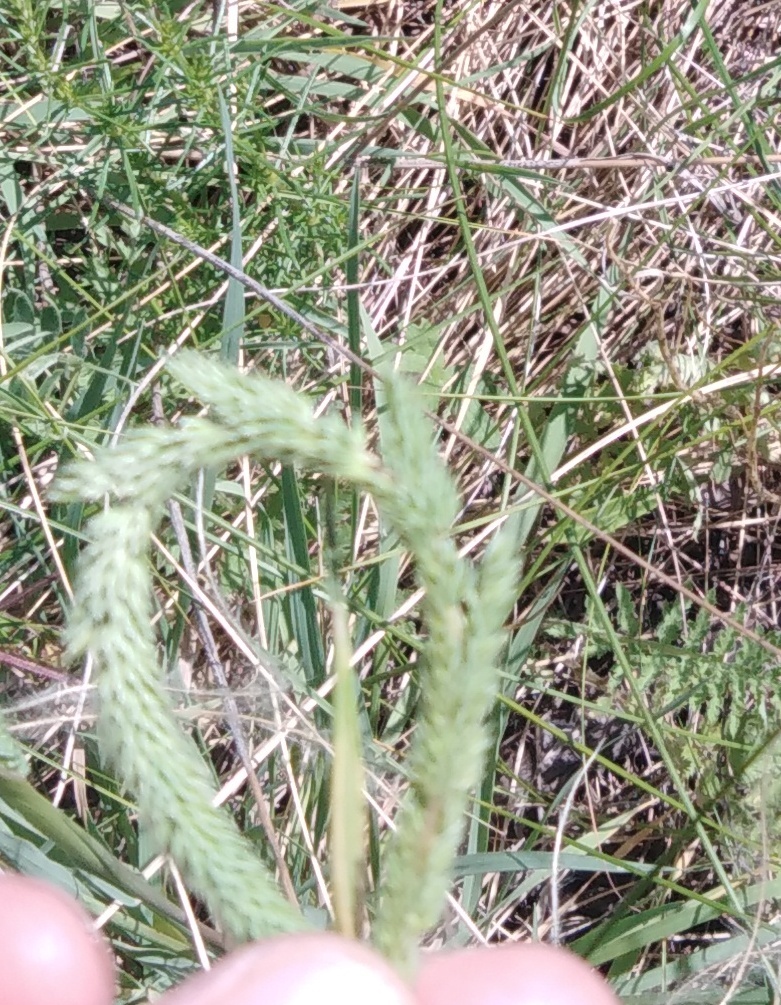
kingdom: Plantae
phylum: Tracheophyta
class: Liliopsida
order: Poales
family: Poaceae
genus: Phleum
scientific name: Phleum phleoides
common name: Purple-stem cat's-tail
